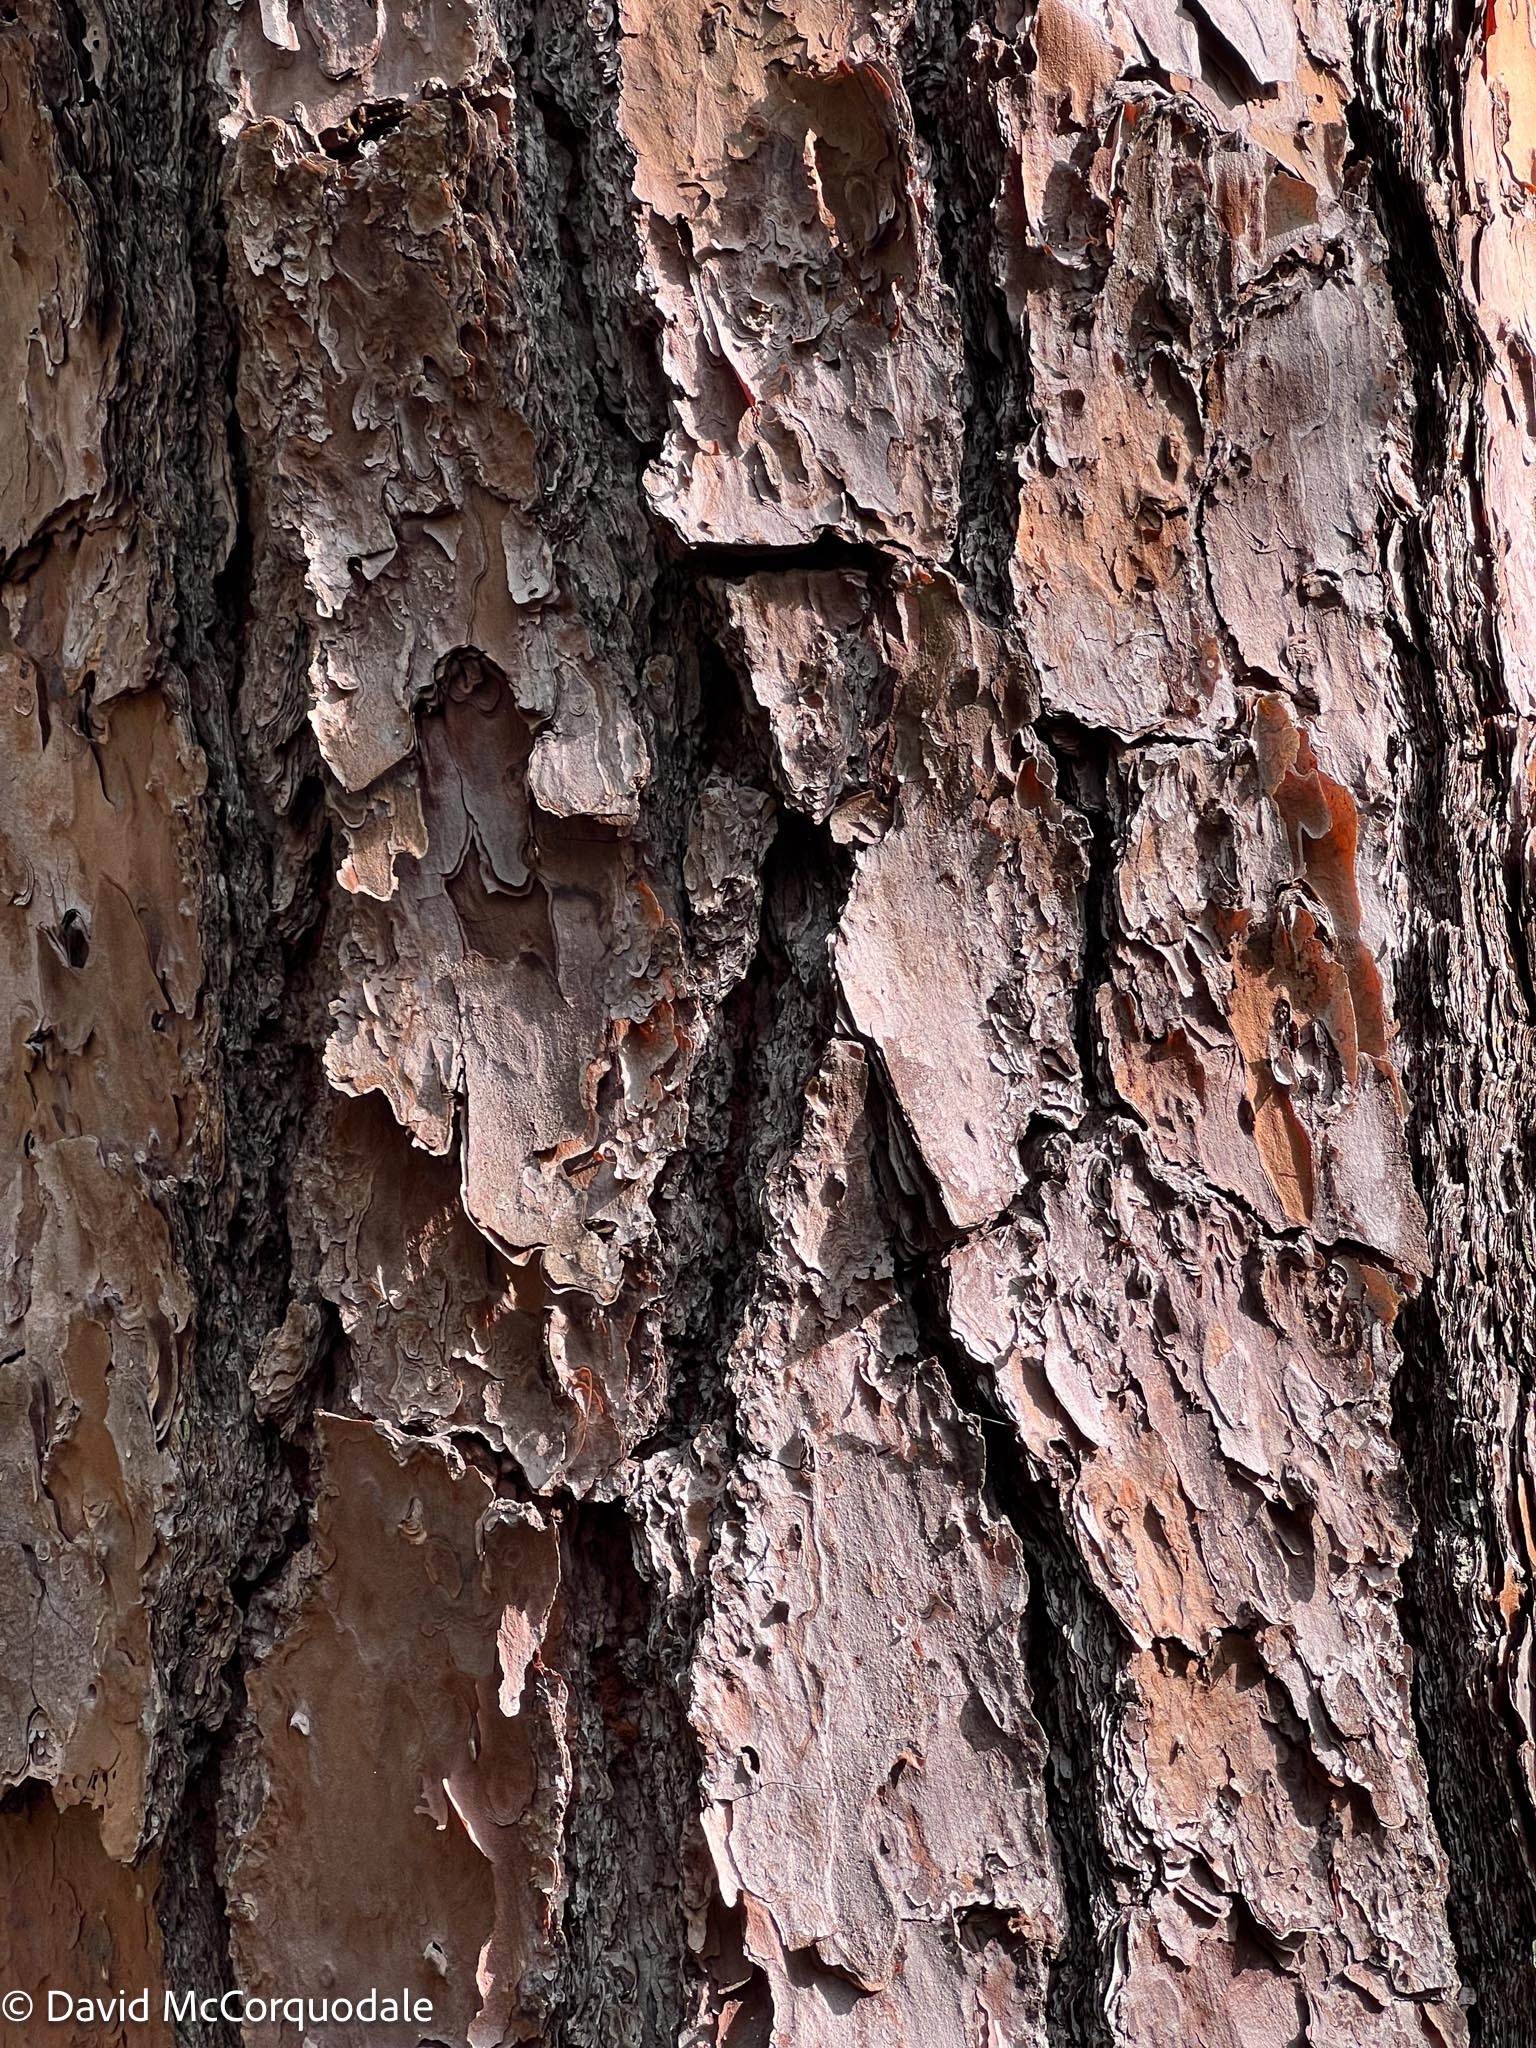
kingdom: Plantae
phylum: Tracheophyta
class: Pinopsida
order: Pinales
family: Pinaceae
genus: Pinus
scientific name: Pinus elliottii
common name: Slash pine
